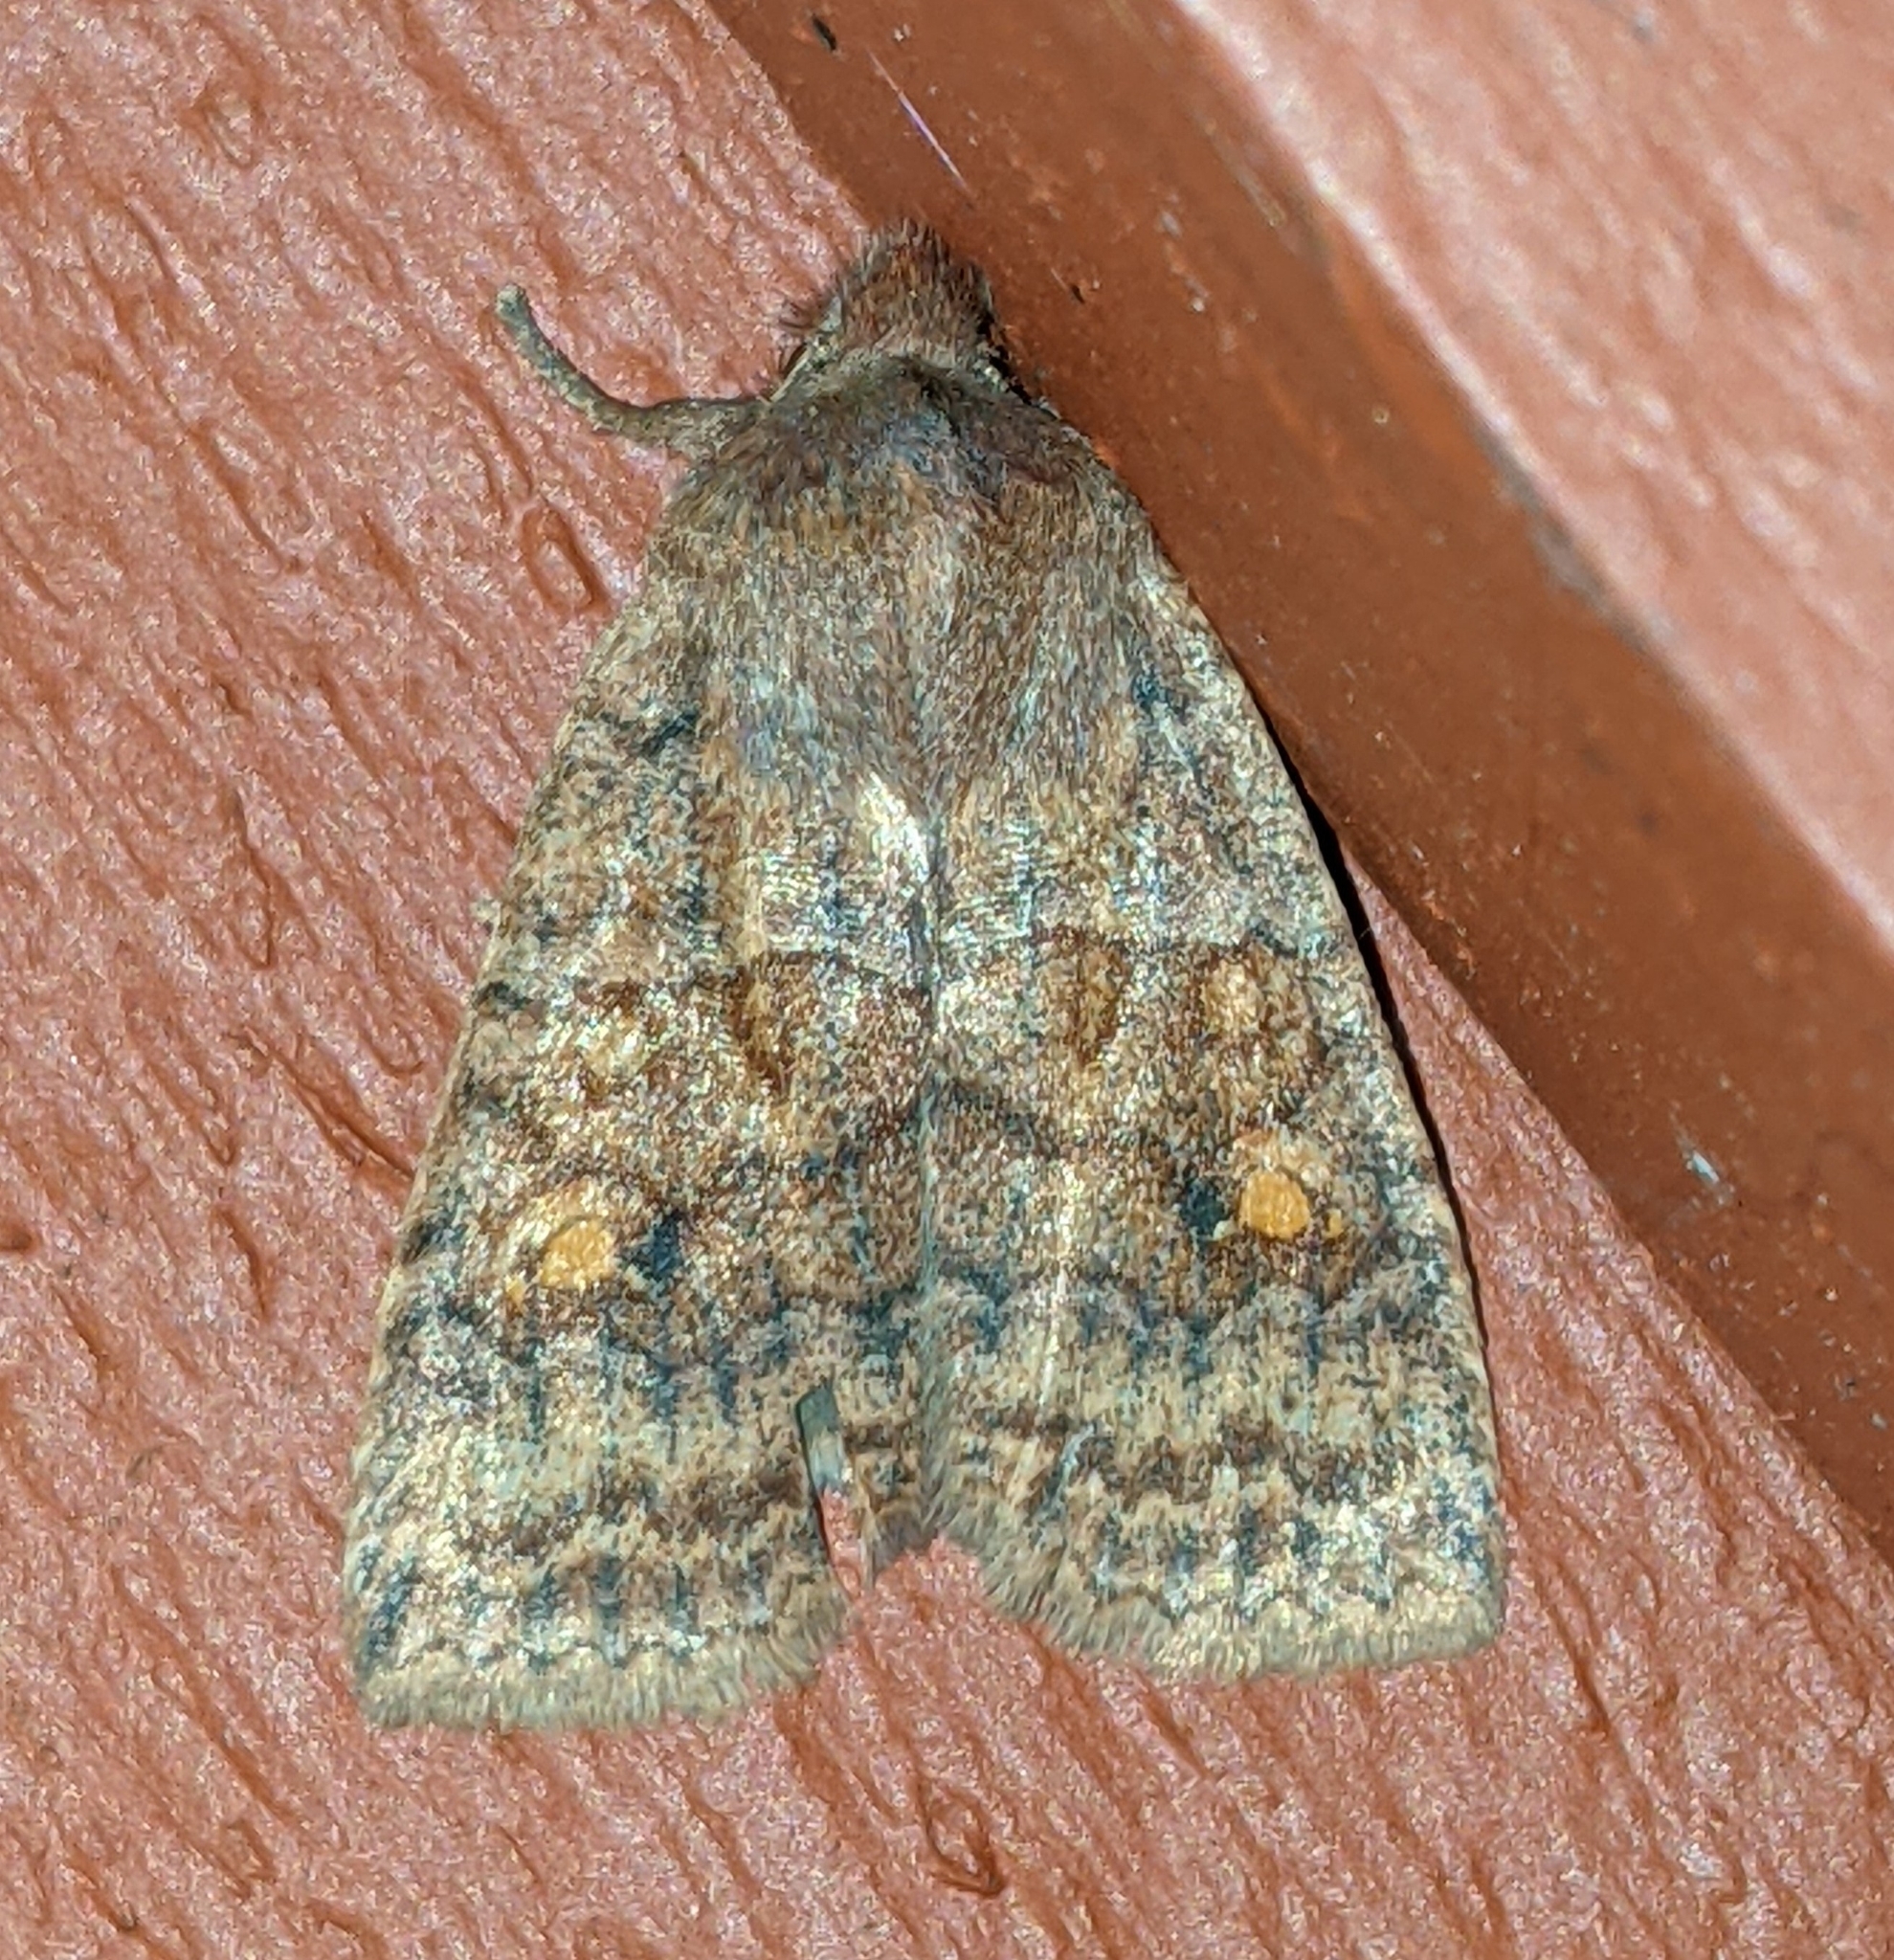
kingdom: Animalia
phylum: Arthropoda
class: Insecta
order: Lepidoptera
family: Noctuidae
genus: Eupsilia
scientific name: Eupsilia tristigmata
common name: Three-spotted sallow
